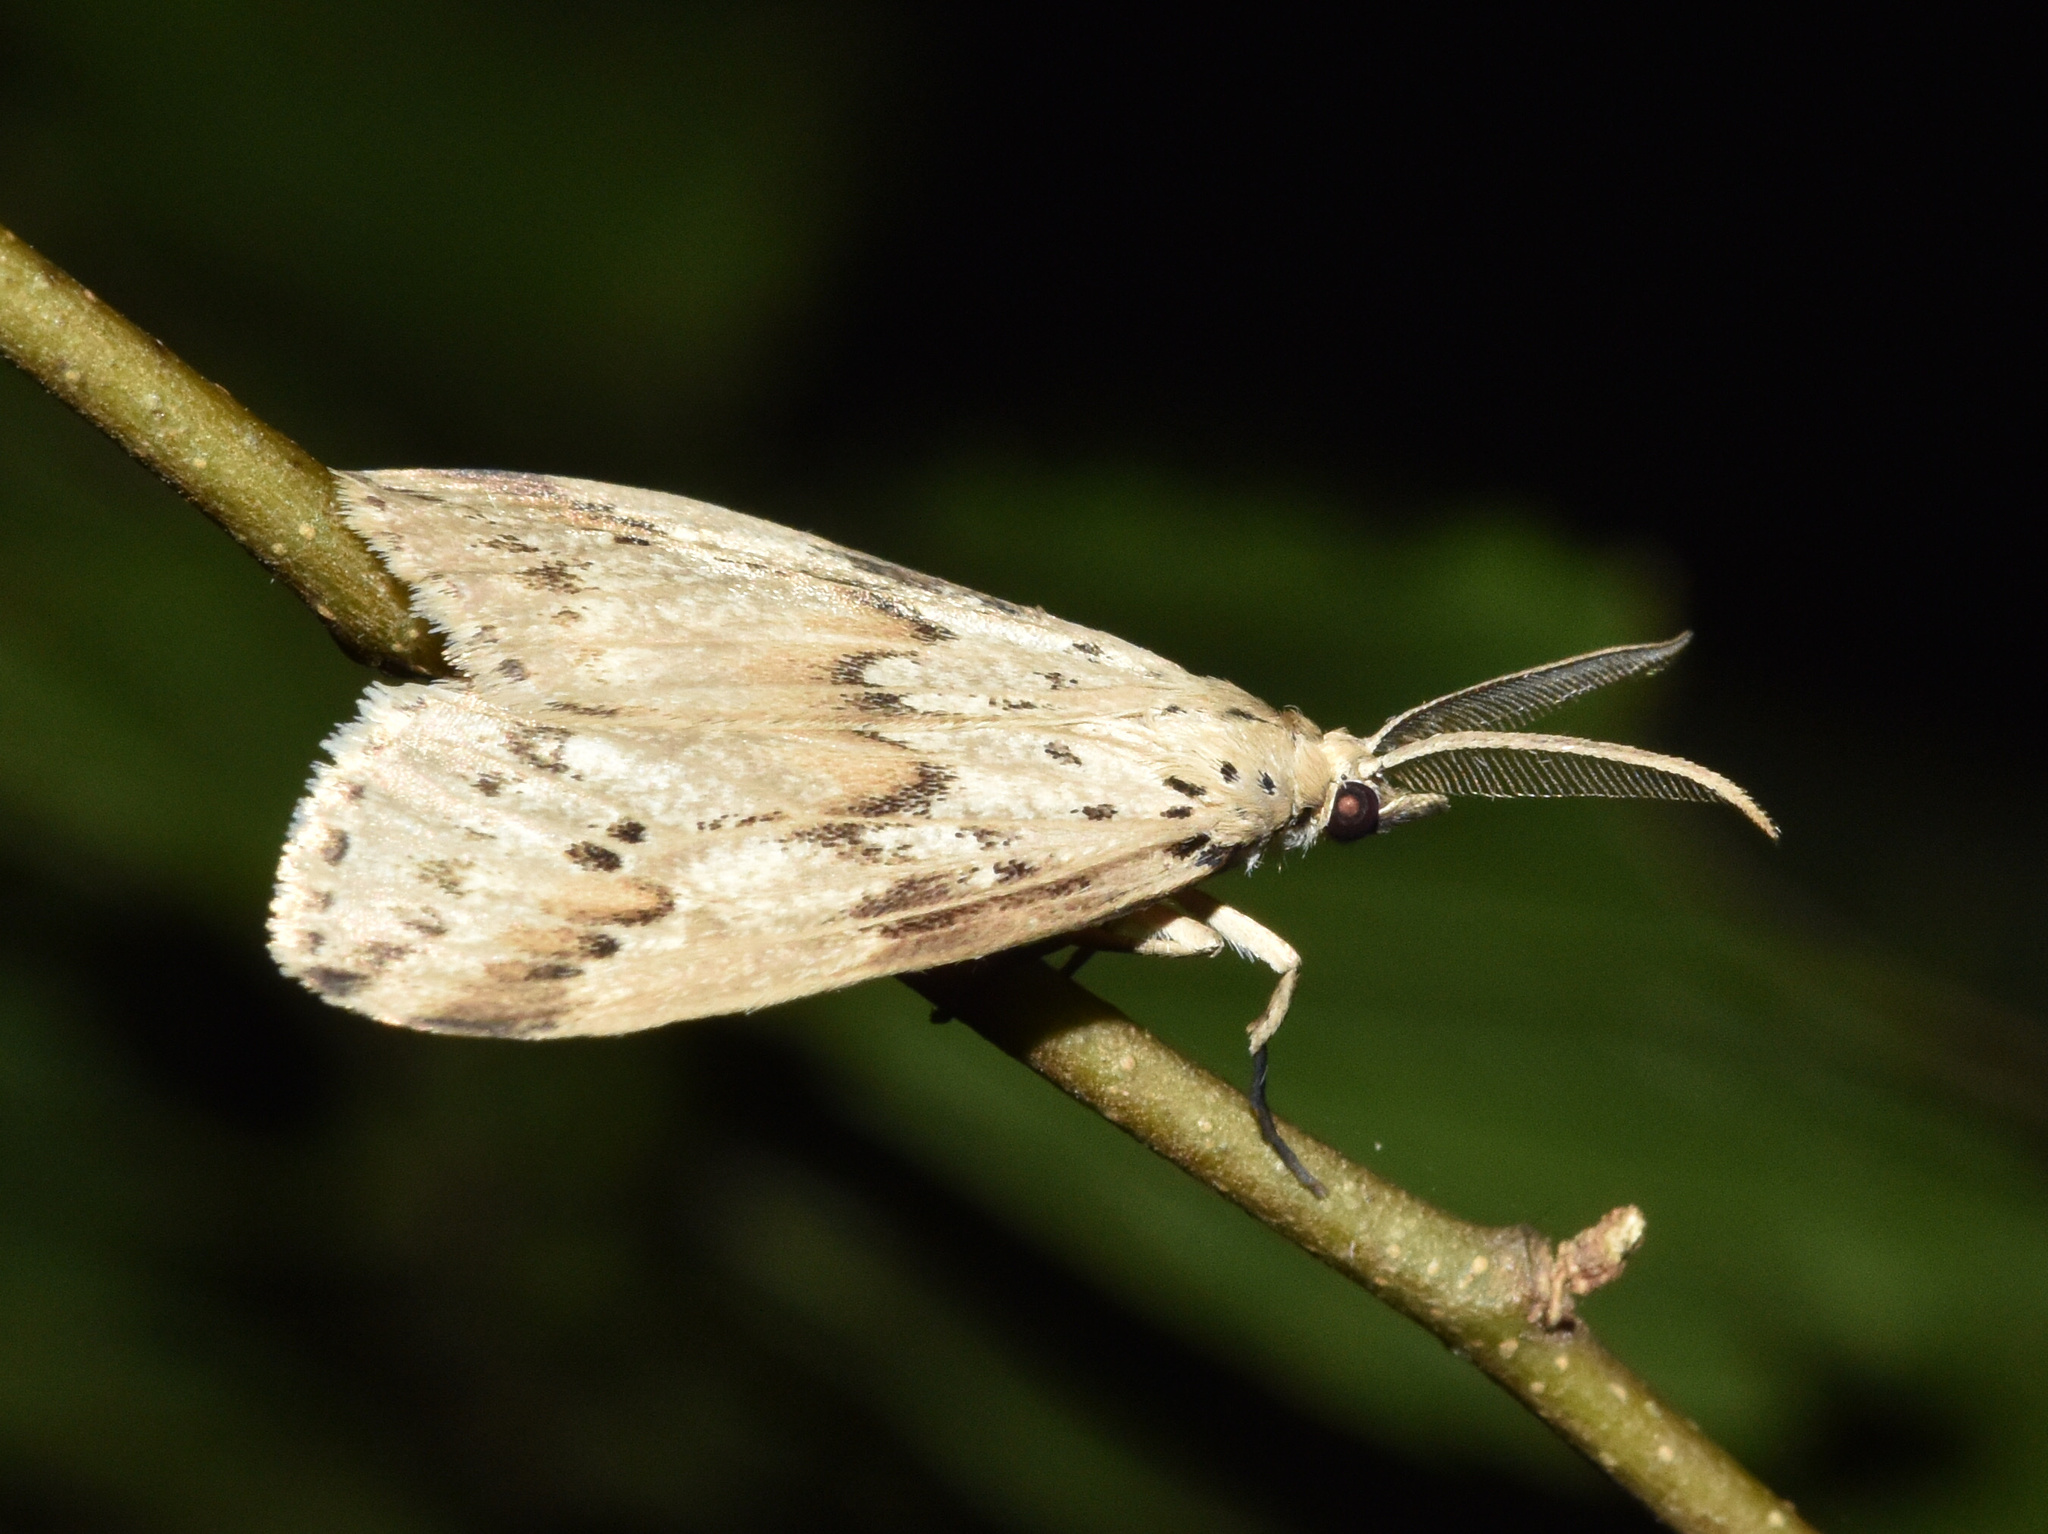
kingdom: Animalia
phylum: Arthropoda
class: Insecta
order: Lepidoptera
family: Erebidae
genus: Galtara
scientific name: Galtara rostrata
